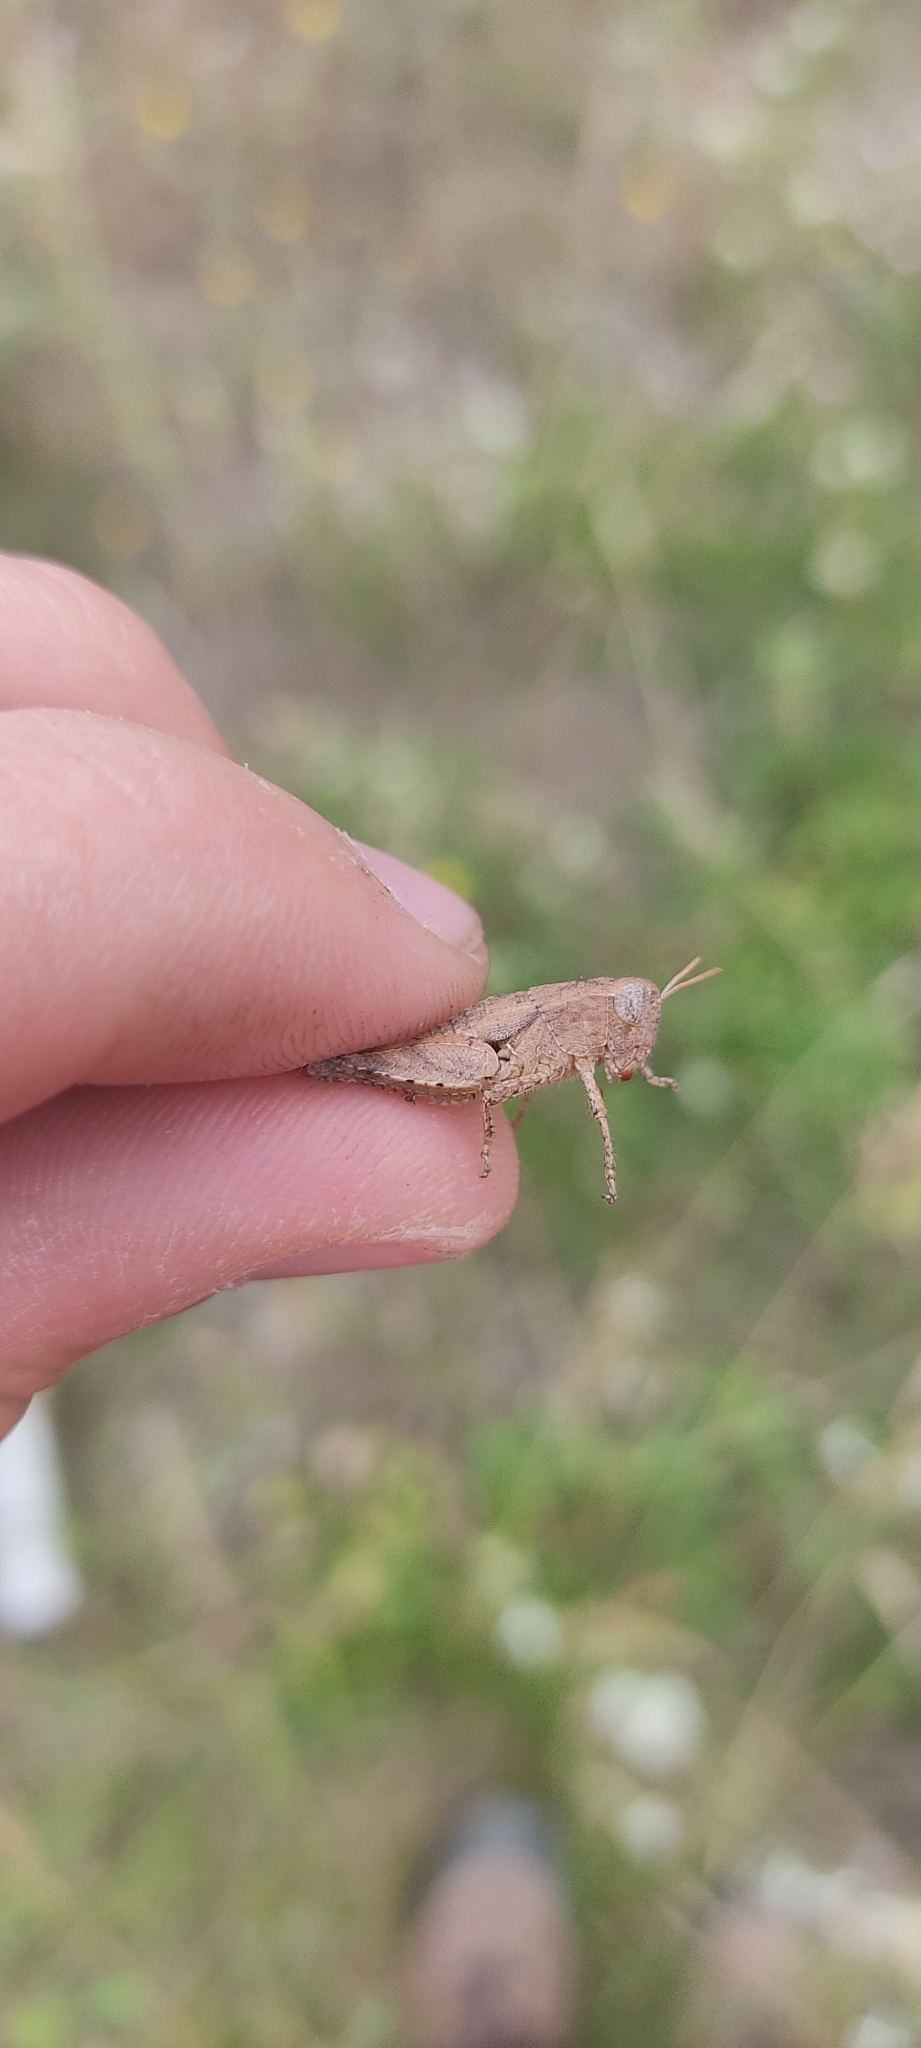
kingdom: Animalia
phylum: Arthropoda
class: Insecta
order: Orthoptera
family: Acrididae
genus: Pezotettix
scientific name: Pezotettix giornae
